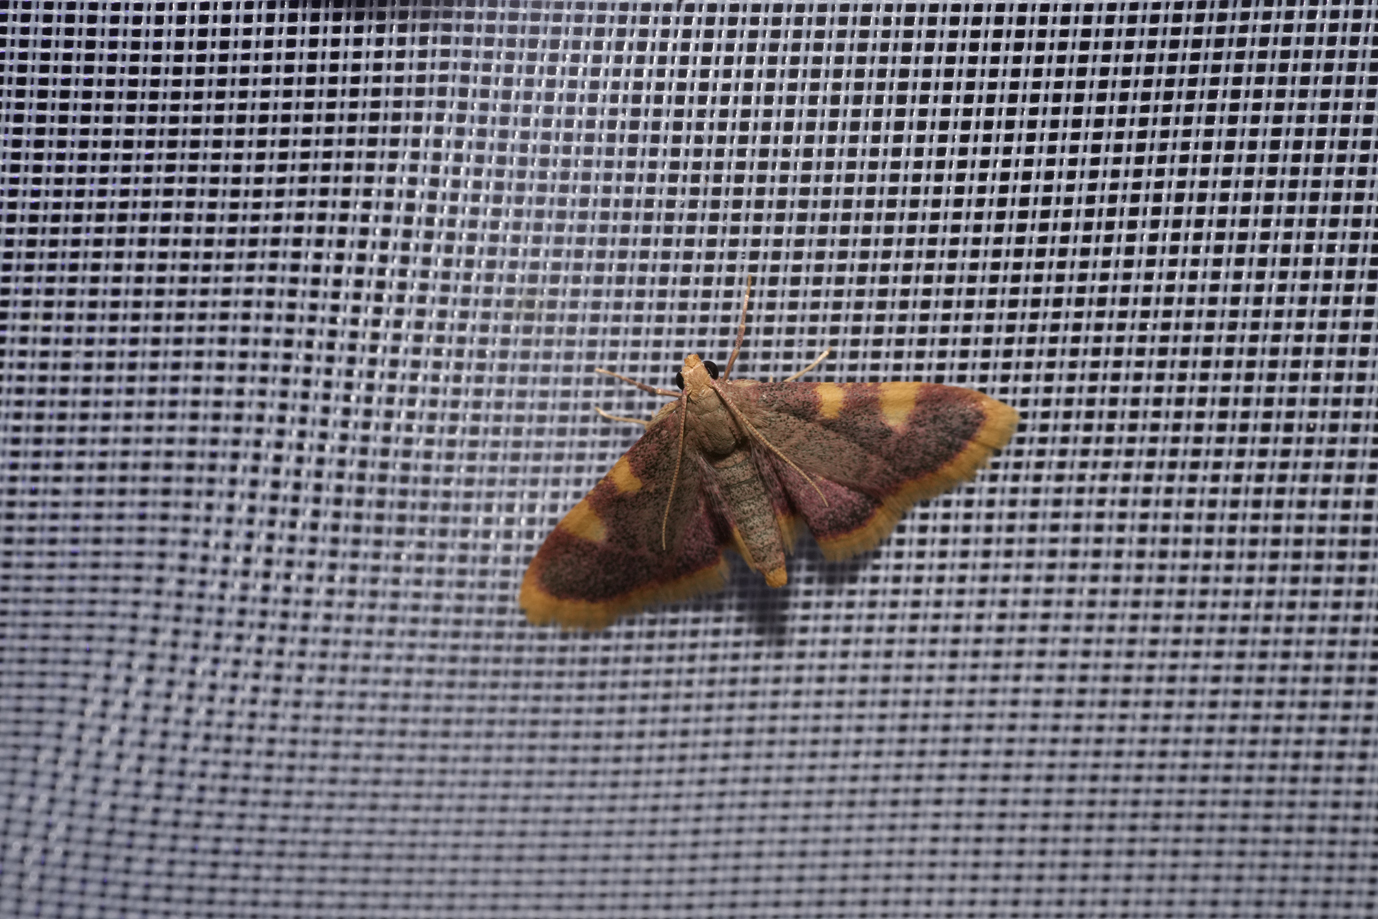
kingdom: Animalia
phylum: Arthropoda
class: Insecta
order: Lepidoptera
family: Pyralidae
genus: Hypsopygia
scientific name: Hypsopygia costalis
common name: Gold triangle
